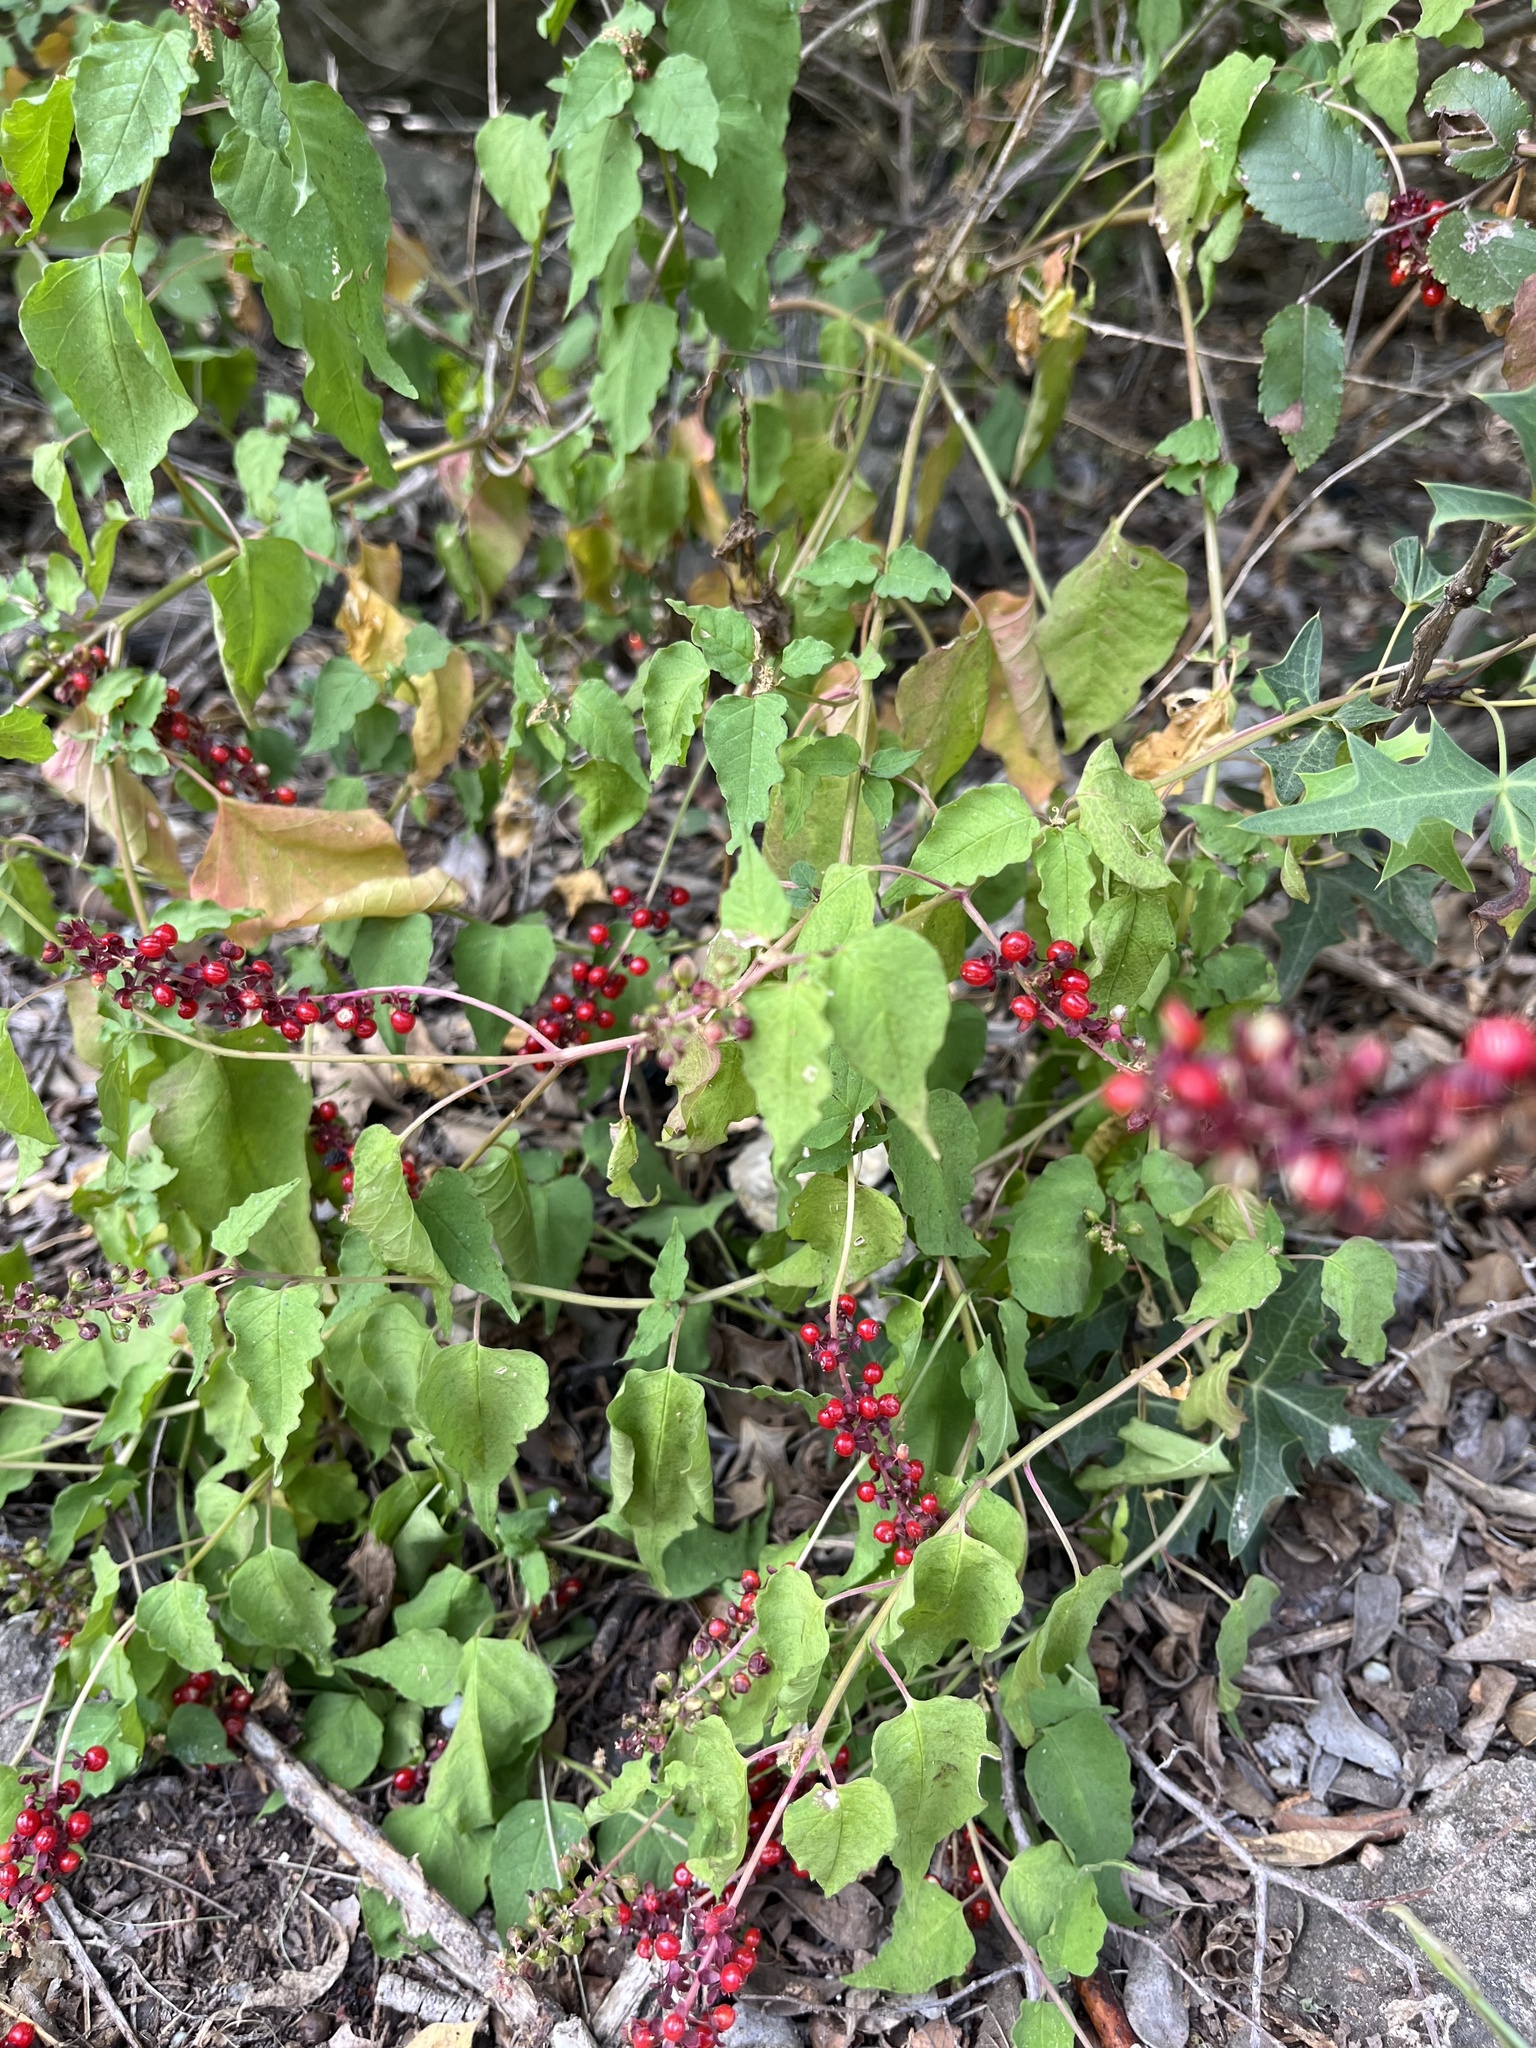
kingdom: Plantae
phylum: Tracheophyta
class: Magnoliopsida
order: Caryophyllales
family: Phytolaccaceae
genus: Rivina
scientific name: Rivina humilis
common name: Rougeplant
